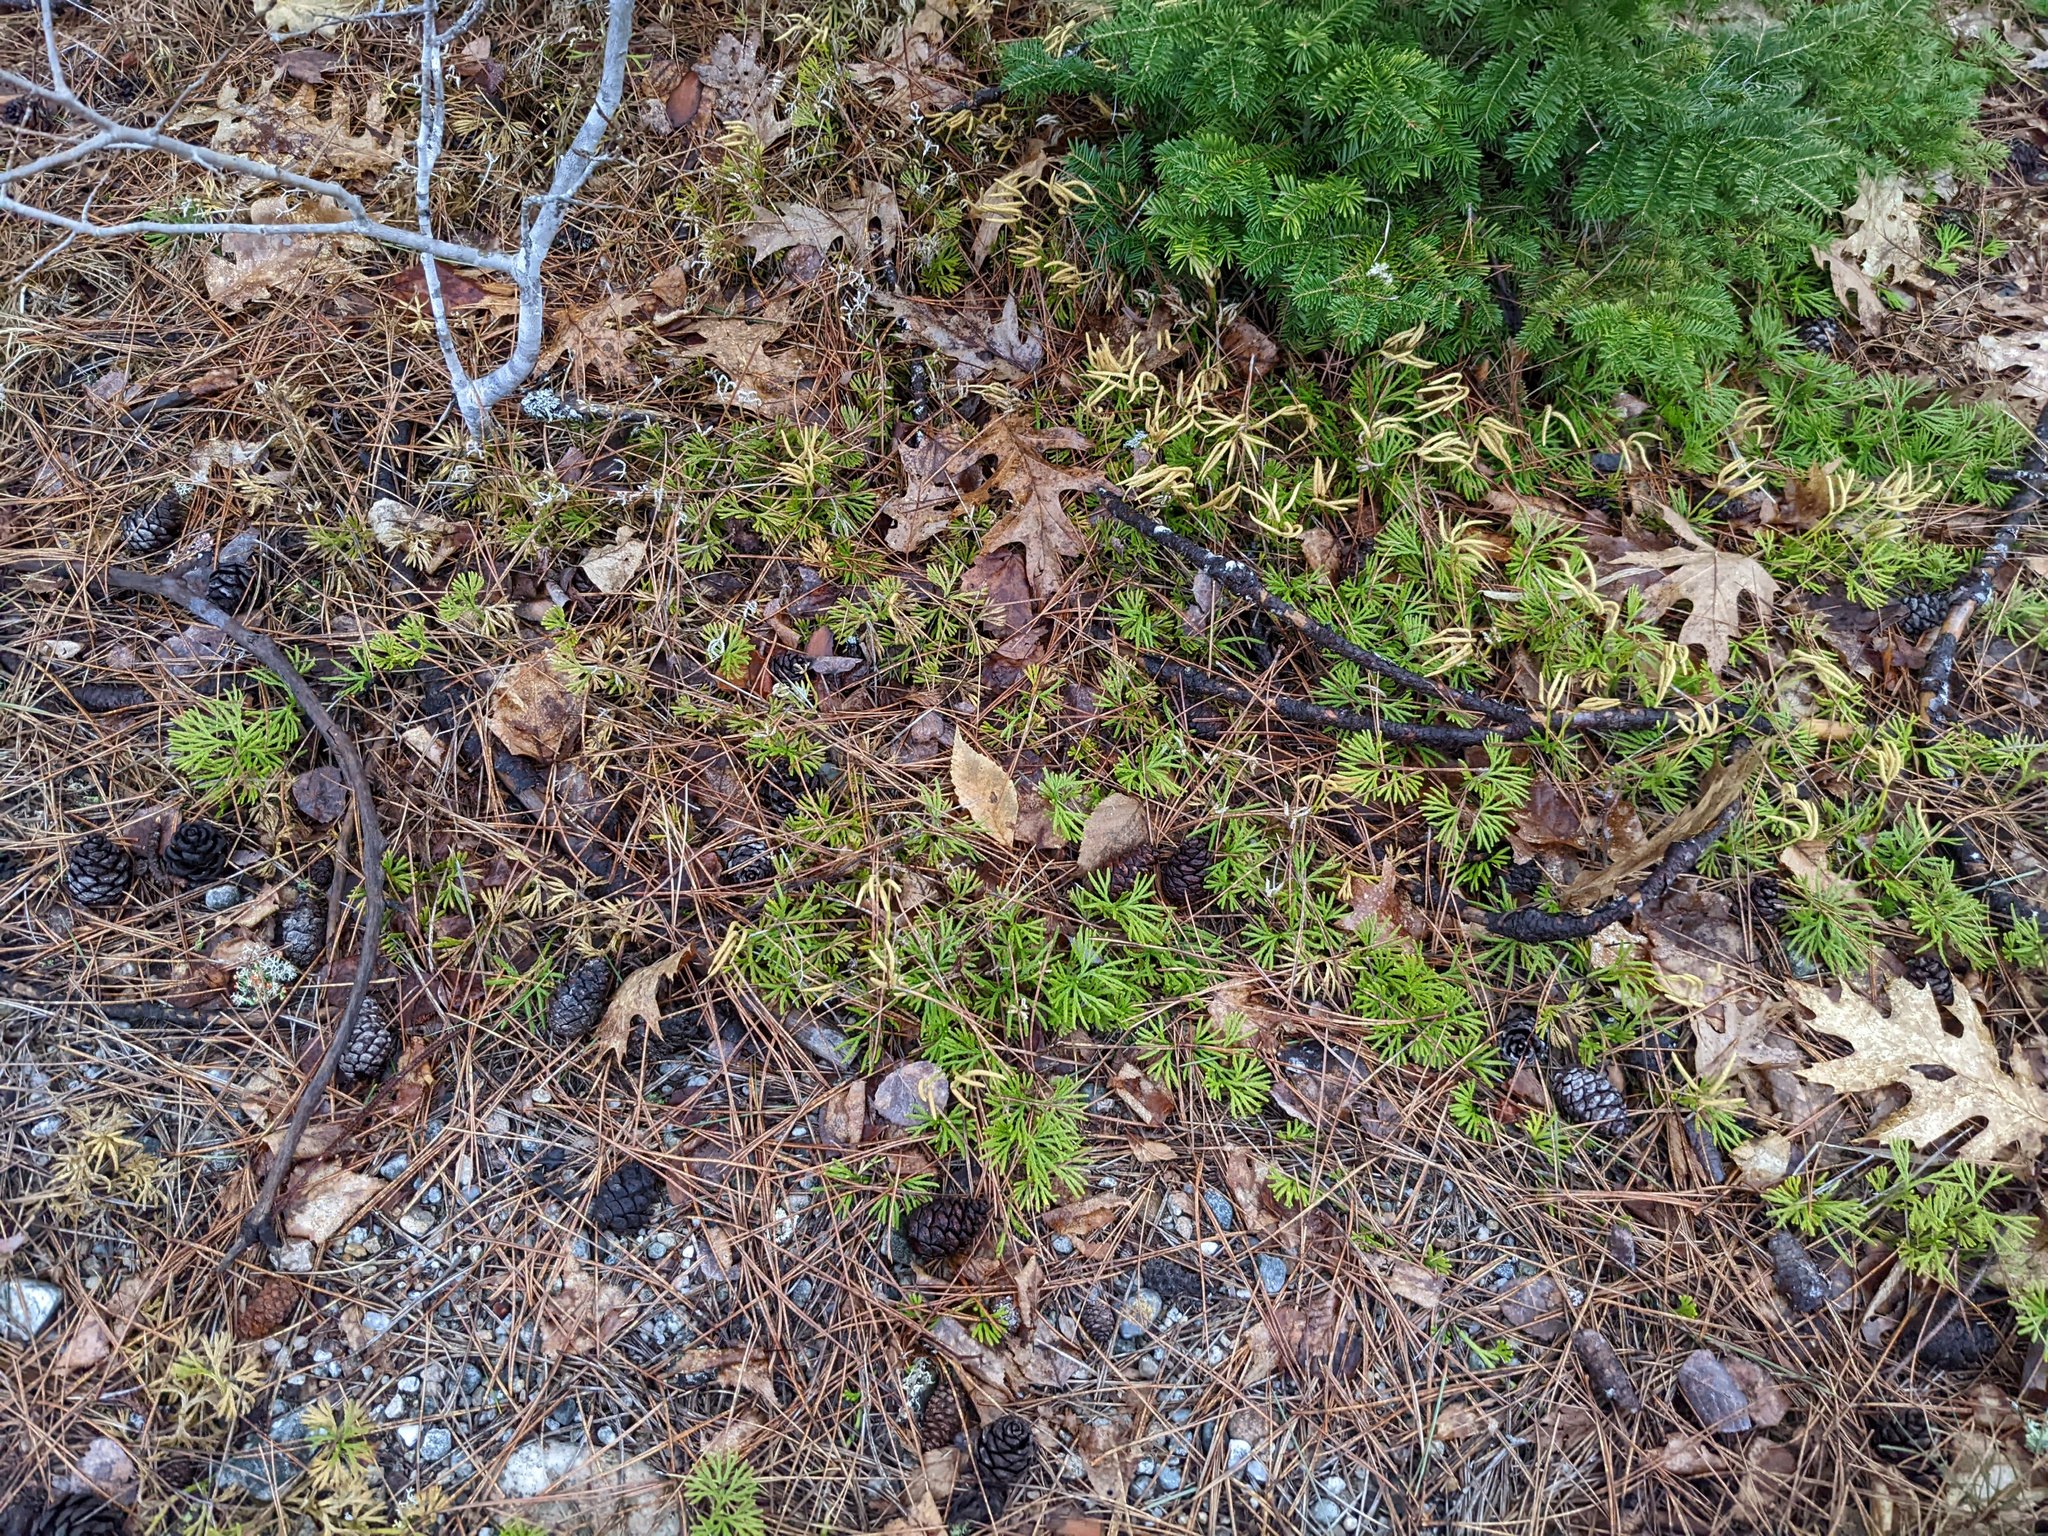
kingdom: Plantae
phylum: Tracheophyta
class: Lycopodiopsida
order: Lycopodiales
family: Lycopodiaceae
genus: Diphasiastrum
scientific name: Diphasiastrum digitatum
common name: Southern running-pine
